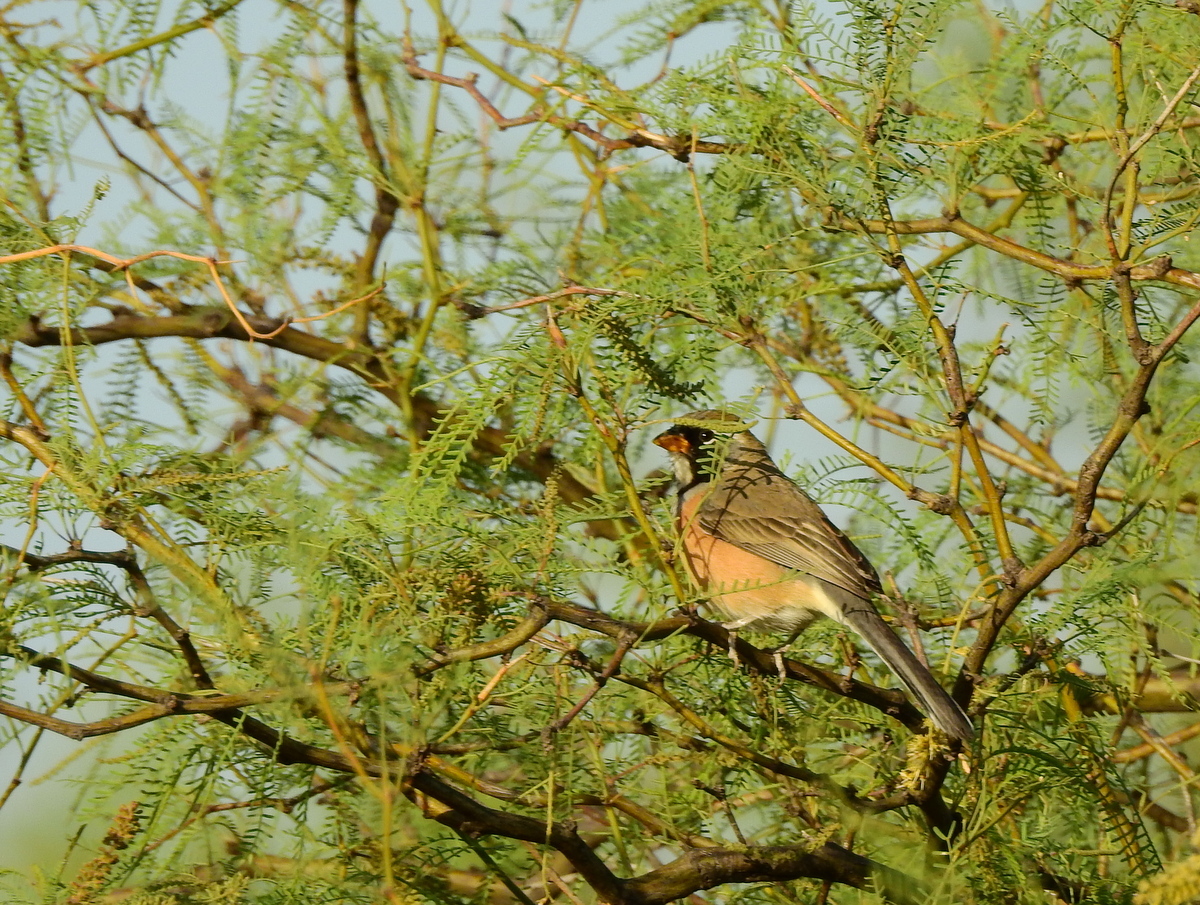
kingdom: Animalia
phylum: Chordata
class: Aves
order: Passeriformes
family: Thraupidae
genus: Saltatricula
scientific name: Saltatricula multicolor
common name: Many-colored chaco finch
